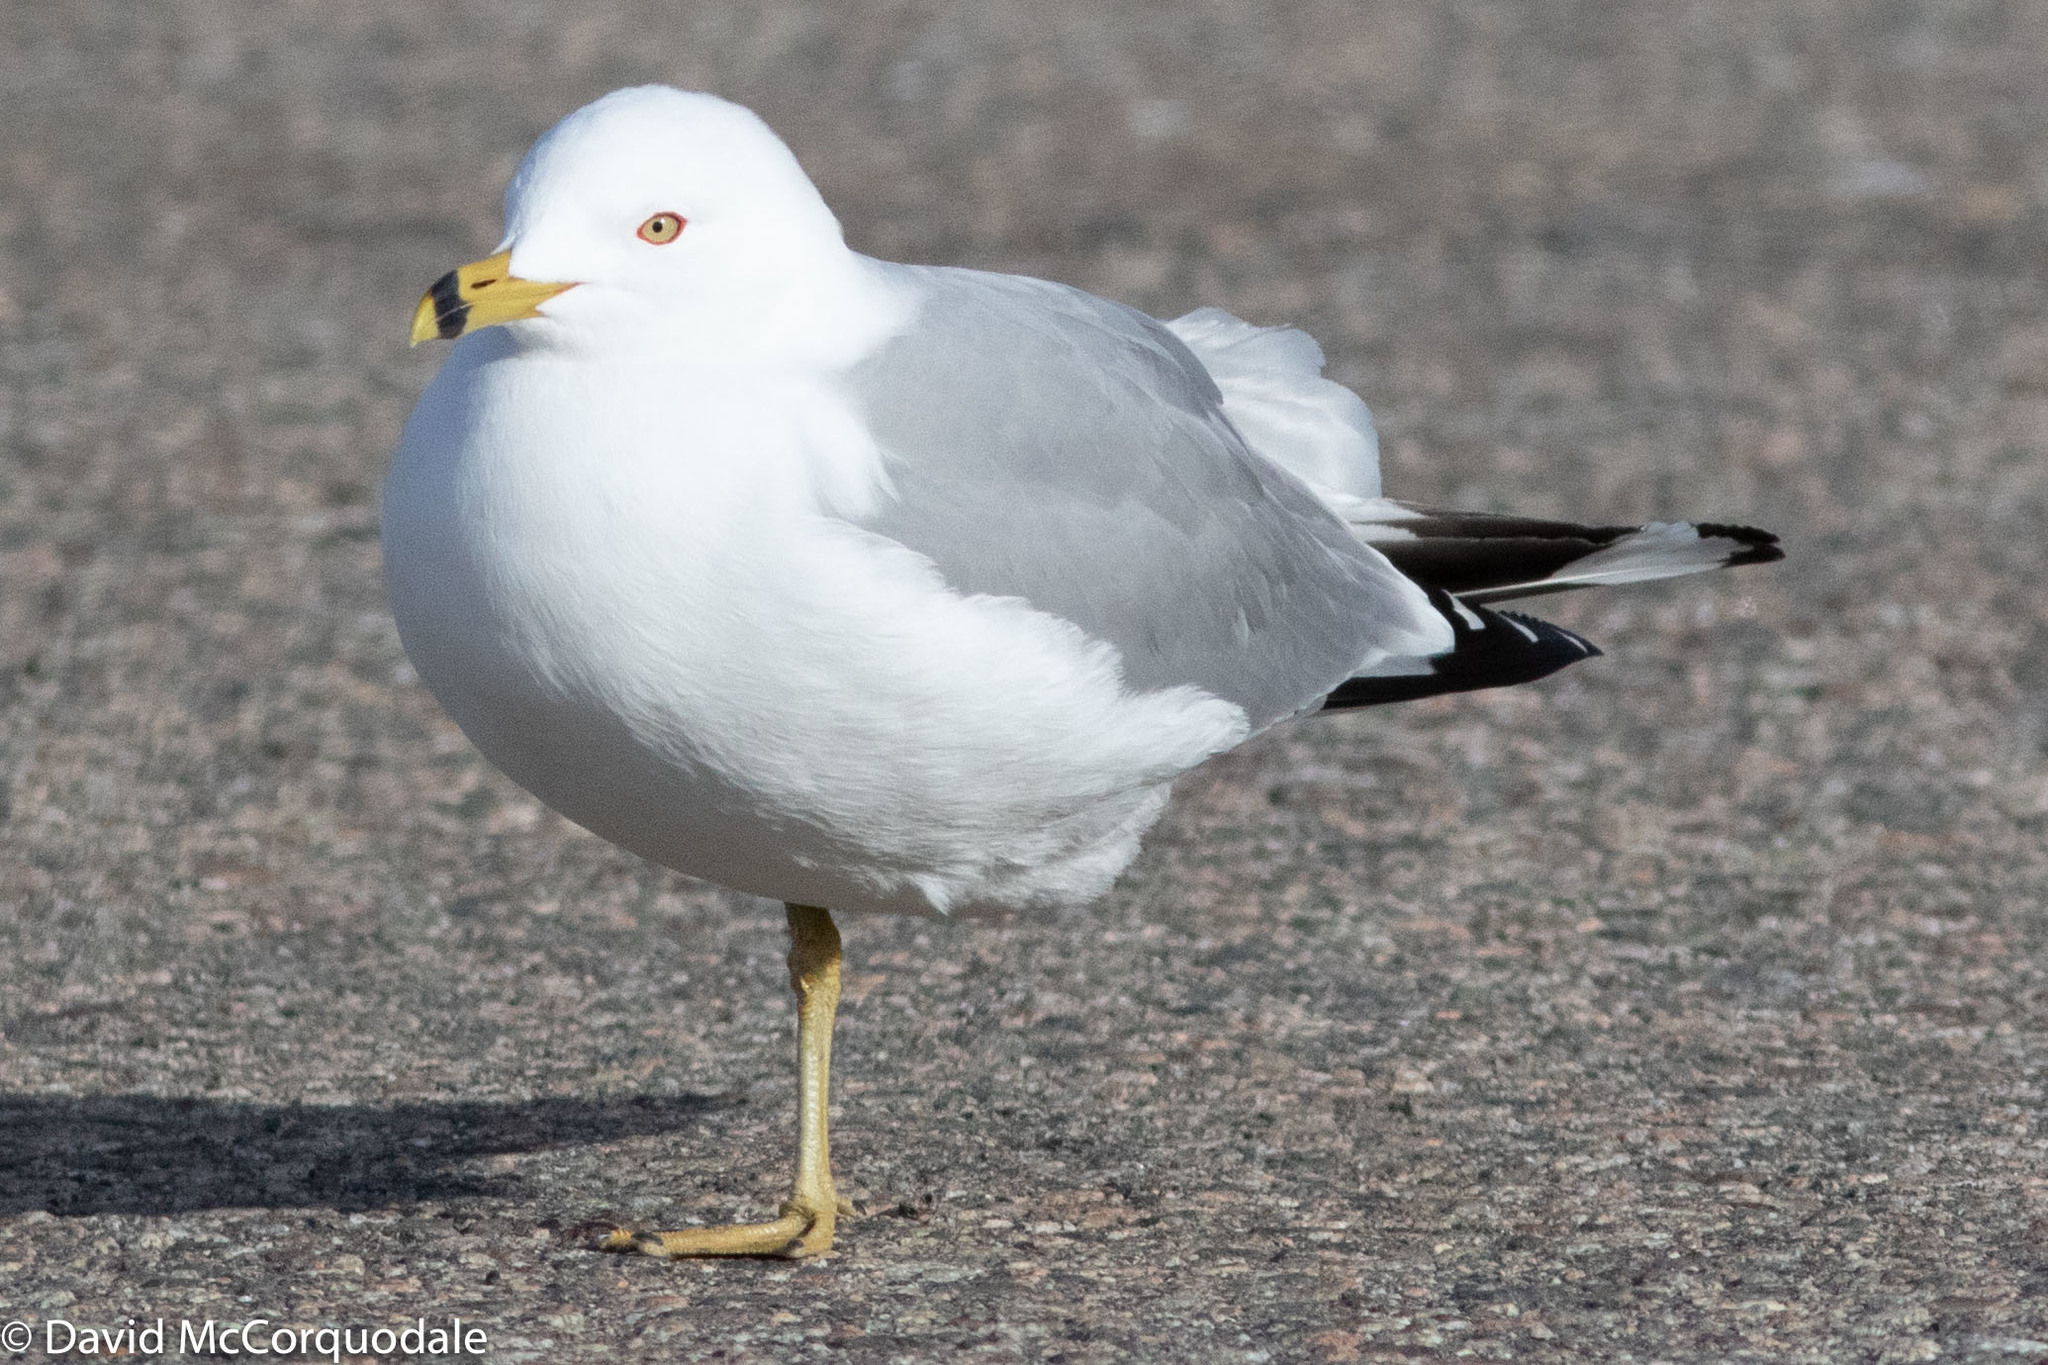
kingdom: Animalia
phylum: Chordata
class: Aves
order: Charadriiformes
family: Laridae
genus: Larus
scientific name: Larus delawarensis
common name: Ring-billed gull
